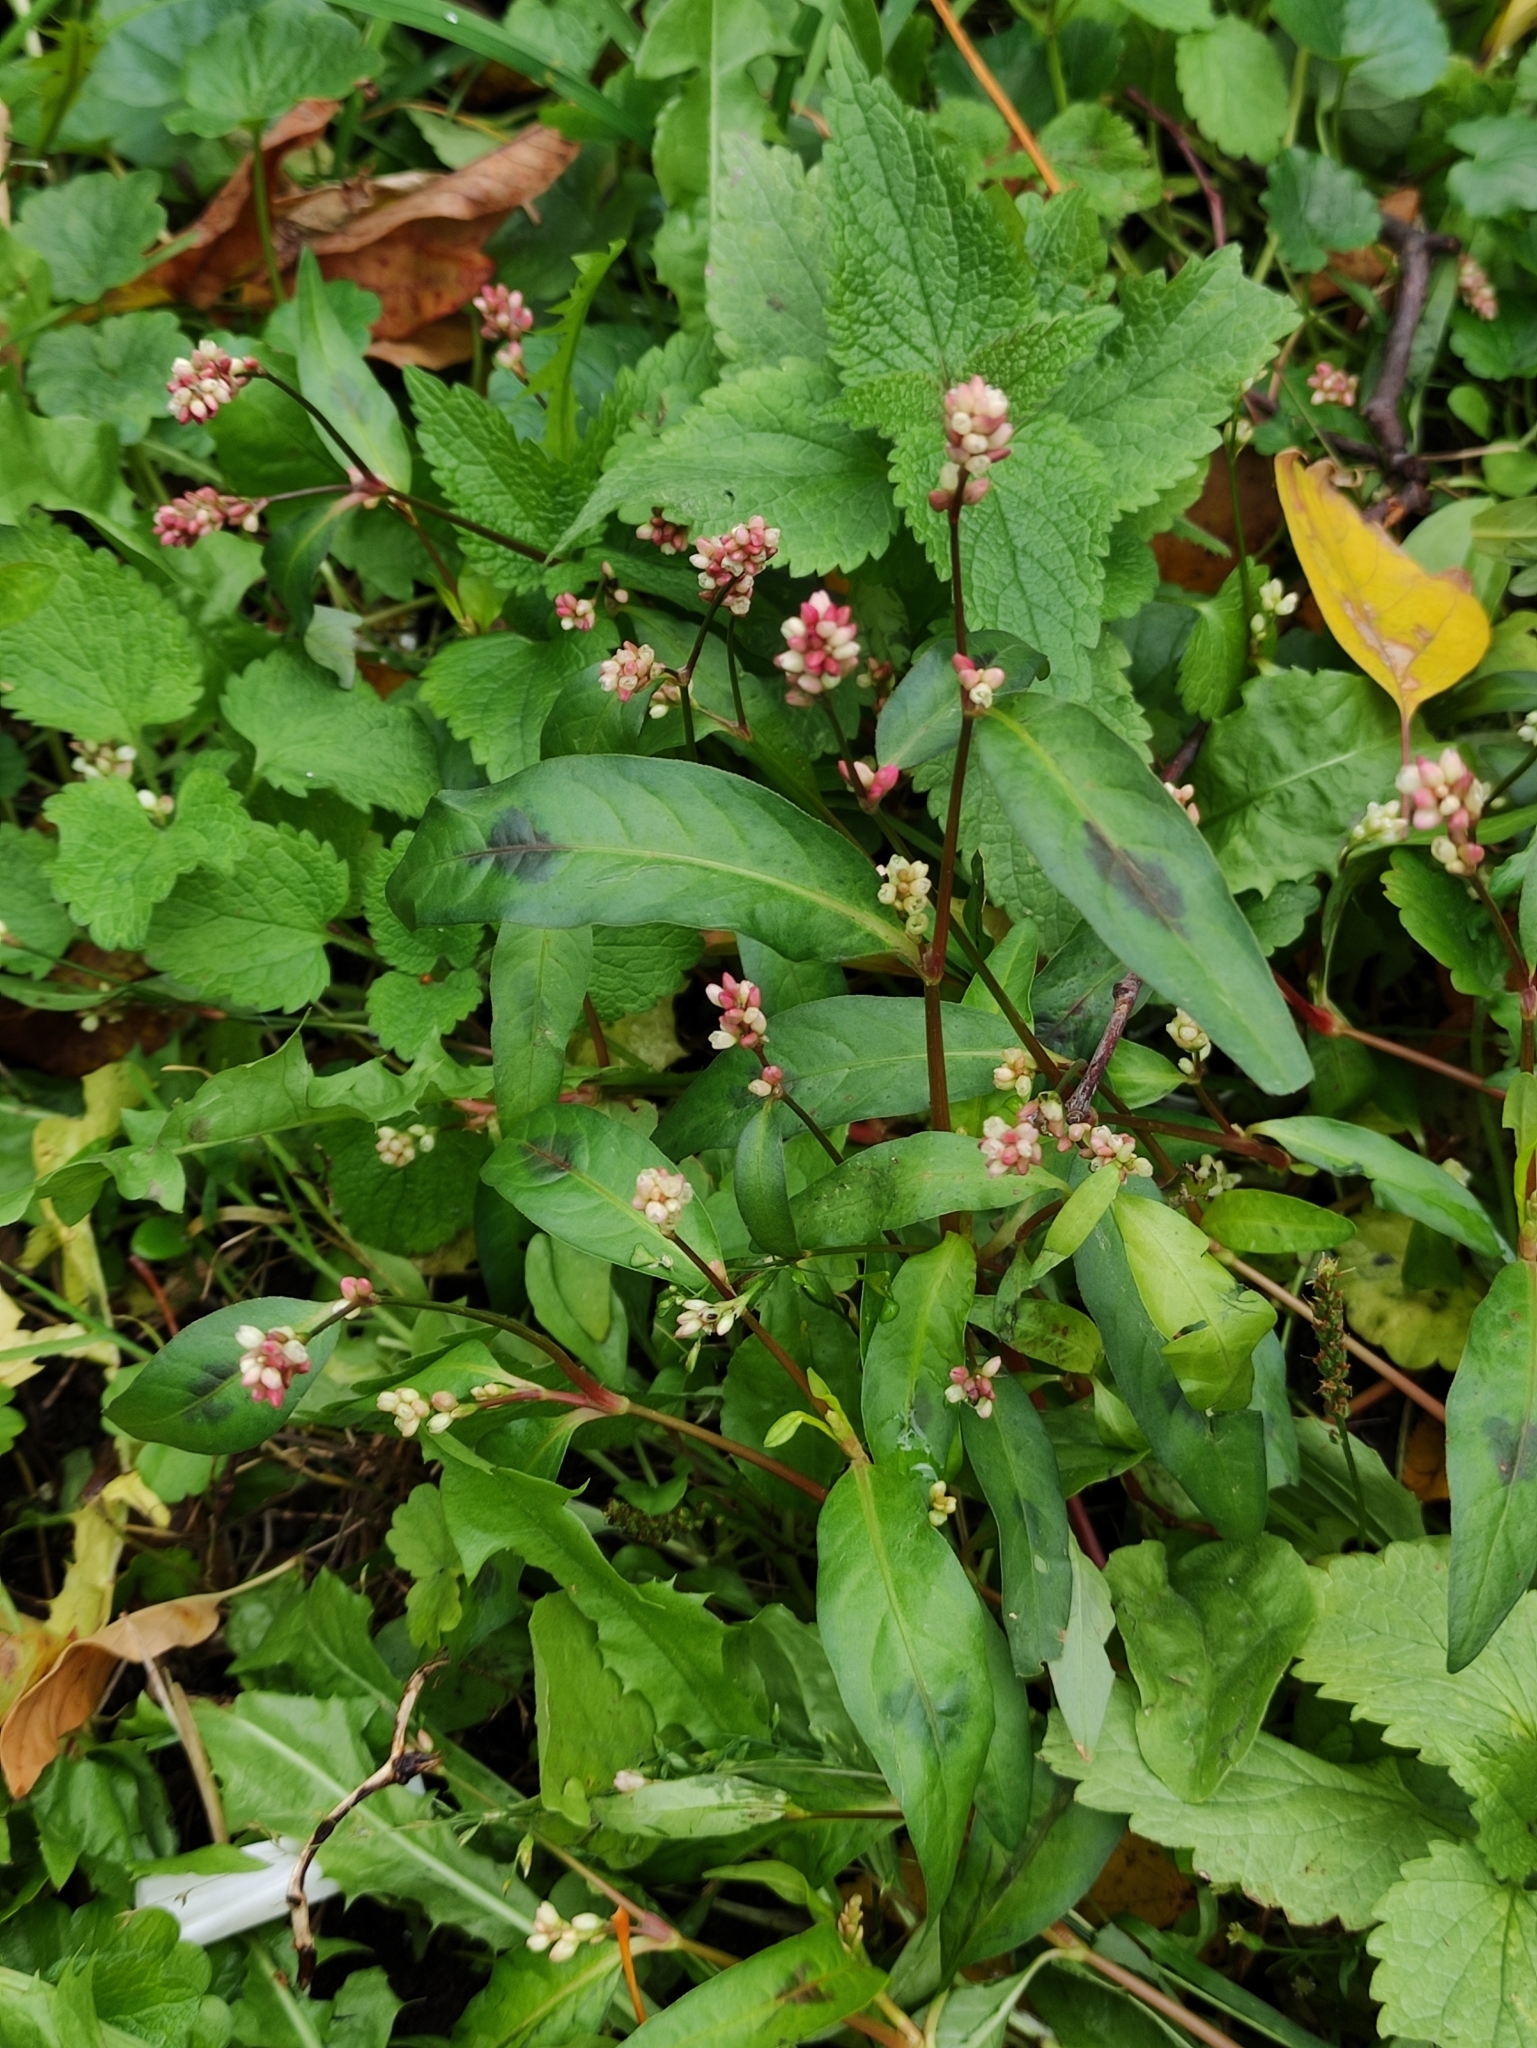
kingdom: Plantae
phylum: Tracheophyta
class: Magnoliopsida
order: Caryophyllales
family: Polygonaceae
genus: Persicaria
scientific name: Persicaria maculosa
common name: Redshank
